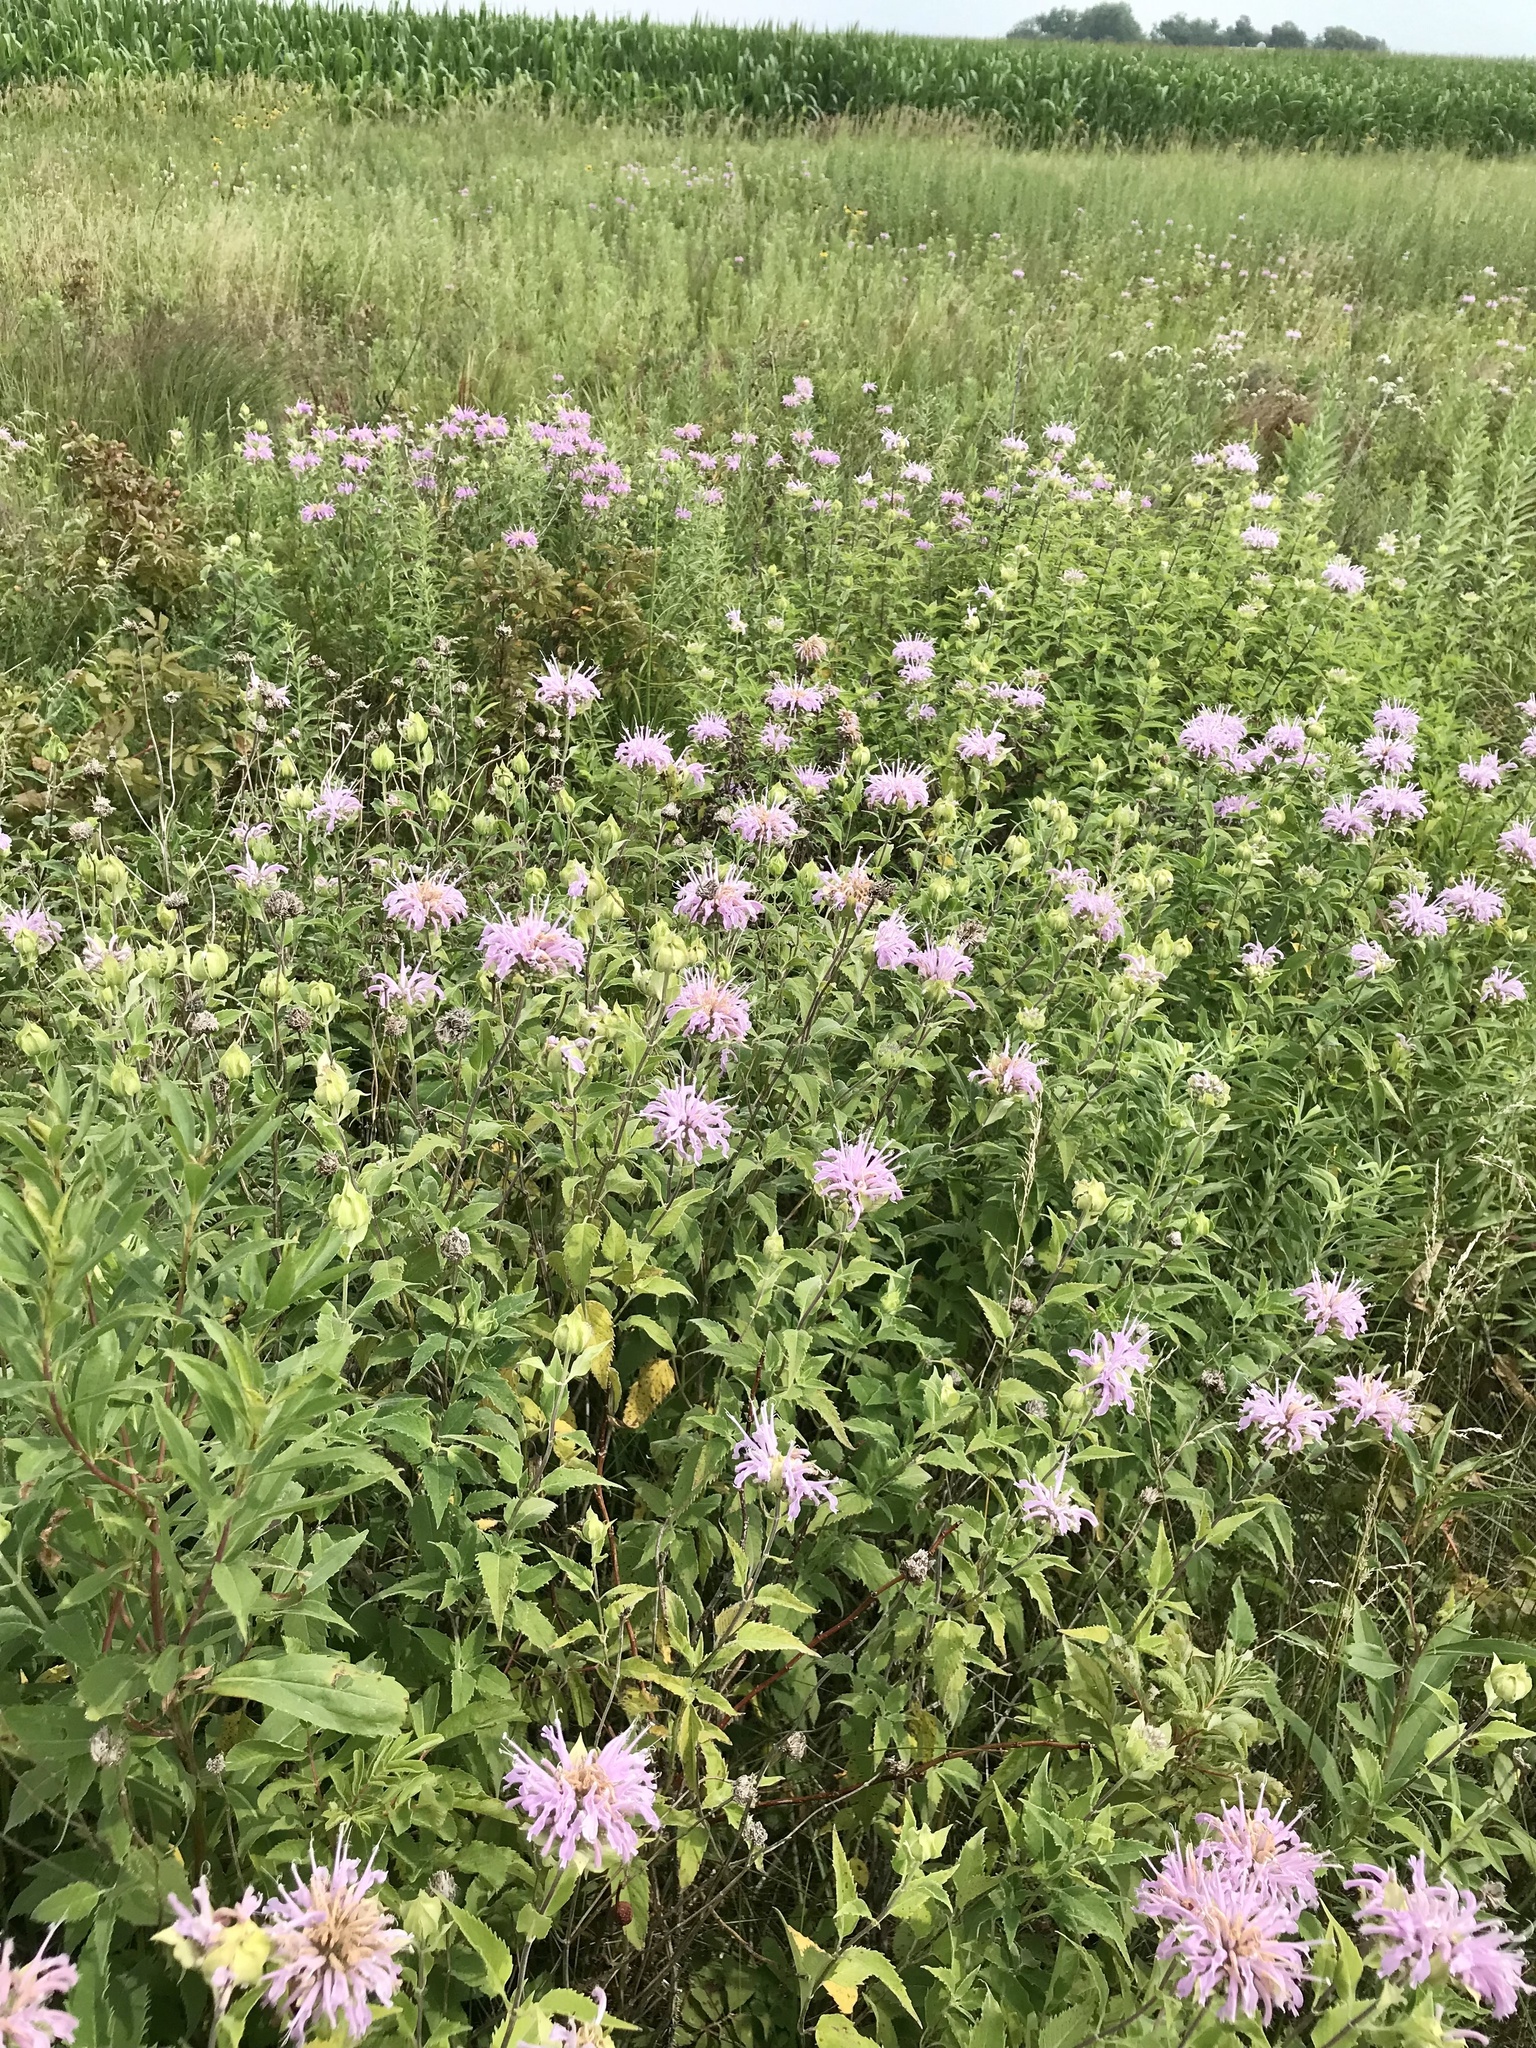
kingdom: Plantae
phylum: Tracheophyta
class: Magnoliopsida
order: Lamiales
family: Lamiaceae
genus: Monarda
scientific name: Monarda fistulosa
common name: Purple beebalm
